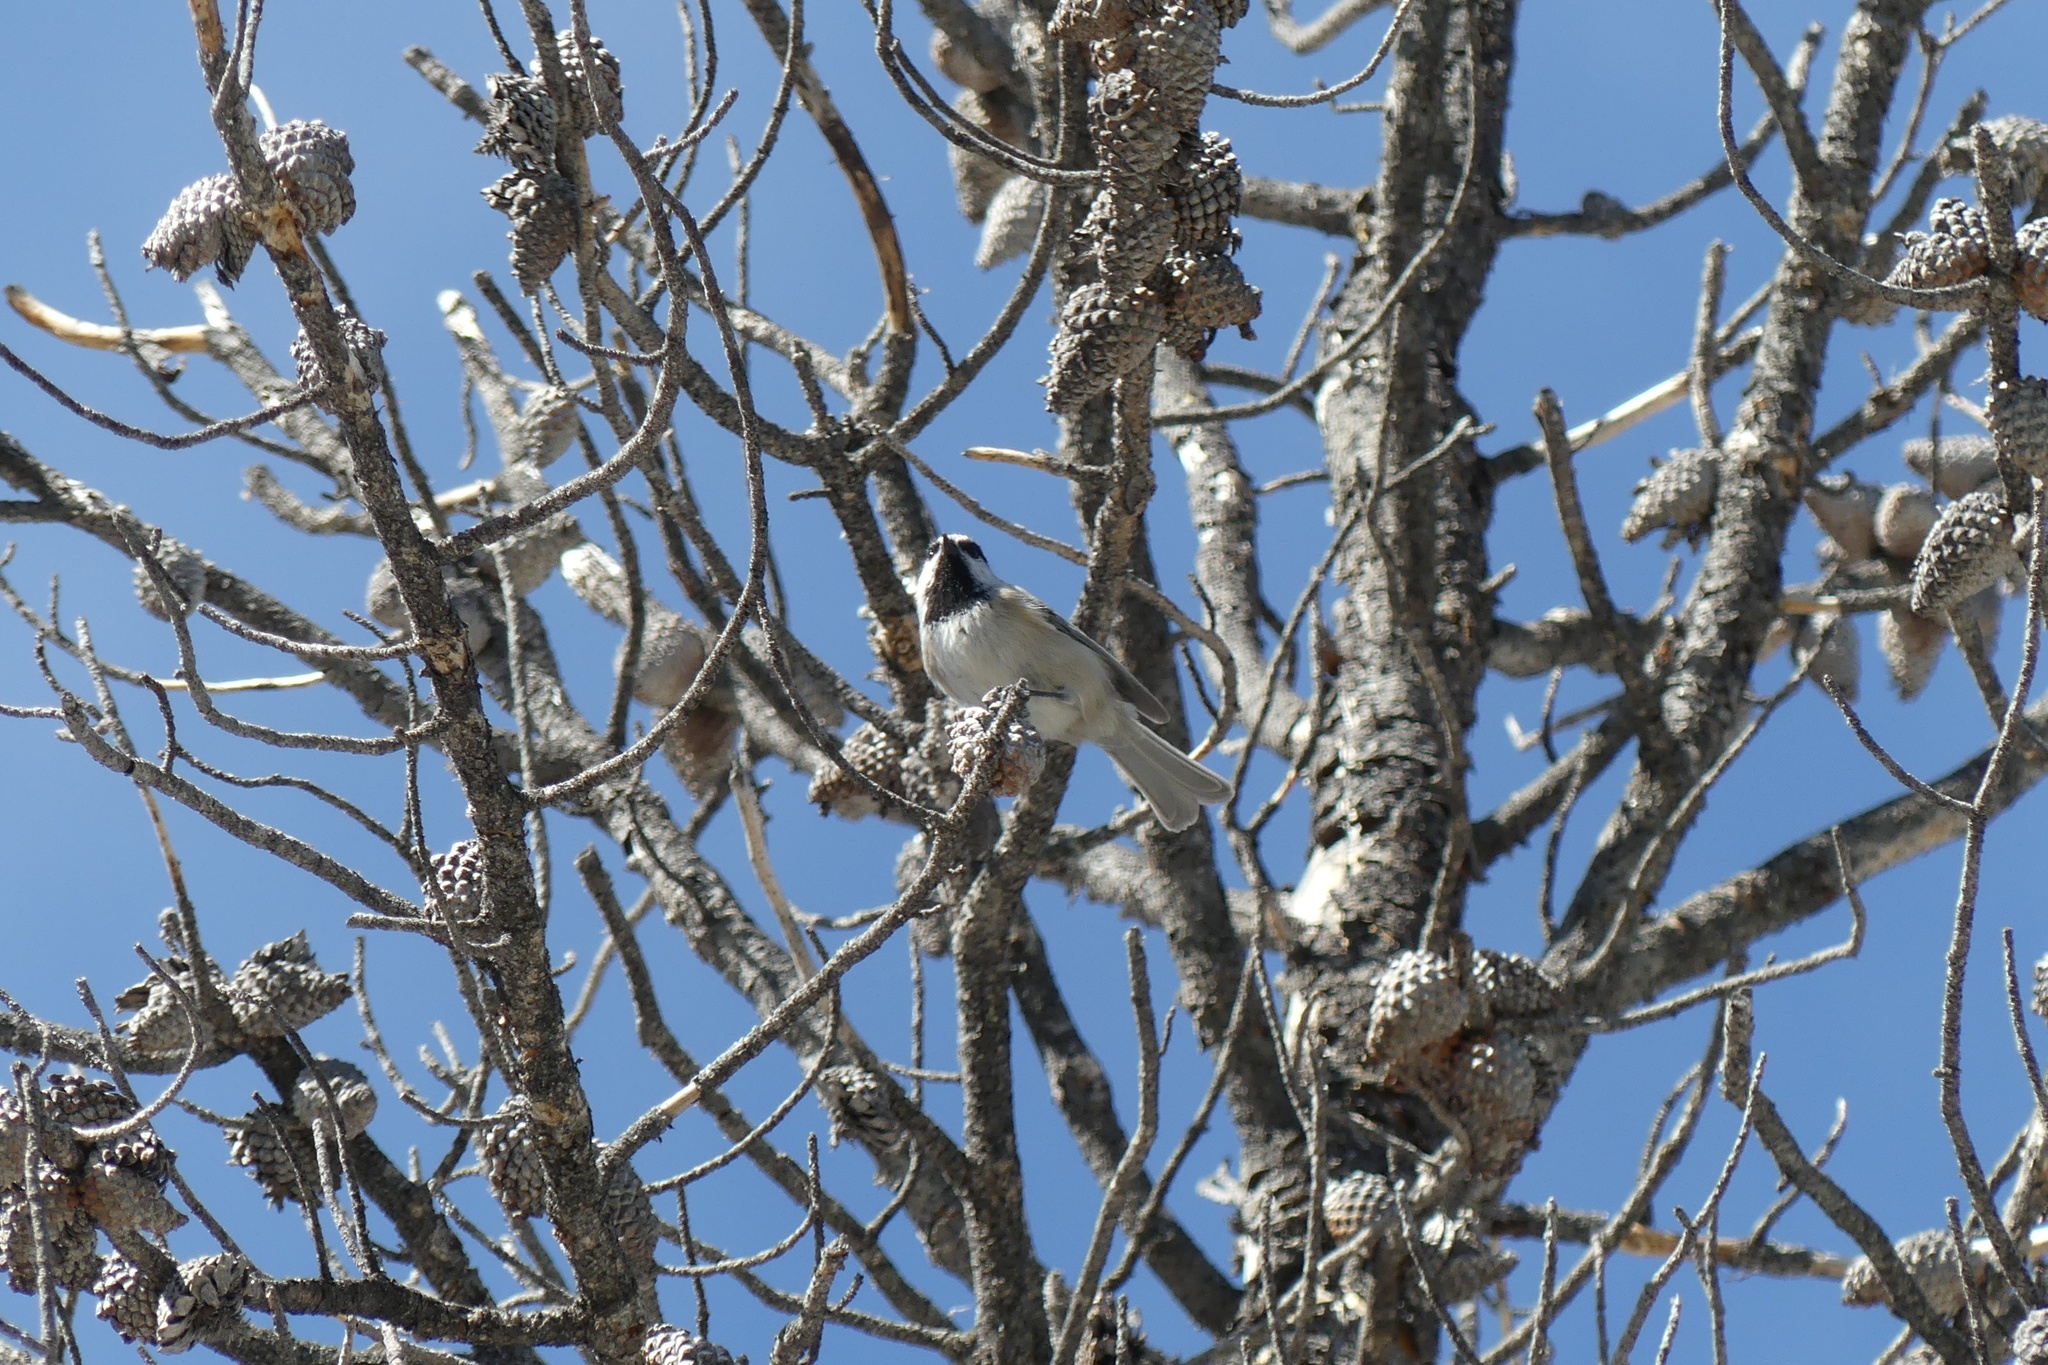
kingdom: Animalia
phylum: Chordata
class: Aves
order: Passeriformes
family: Paridae
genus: Poecile
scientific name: Poecile gambeli
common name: Mountain chickadee
